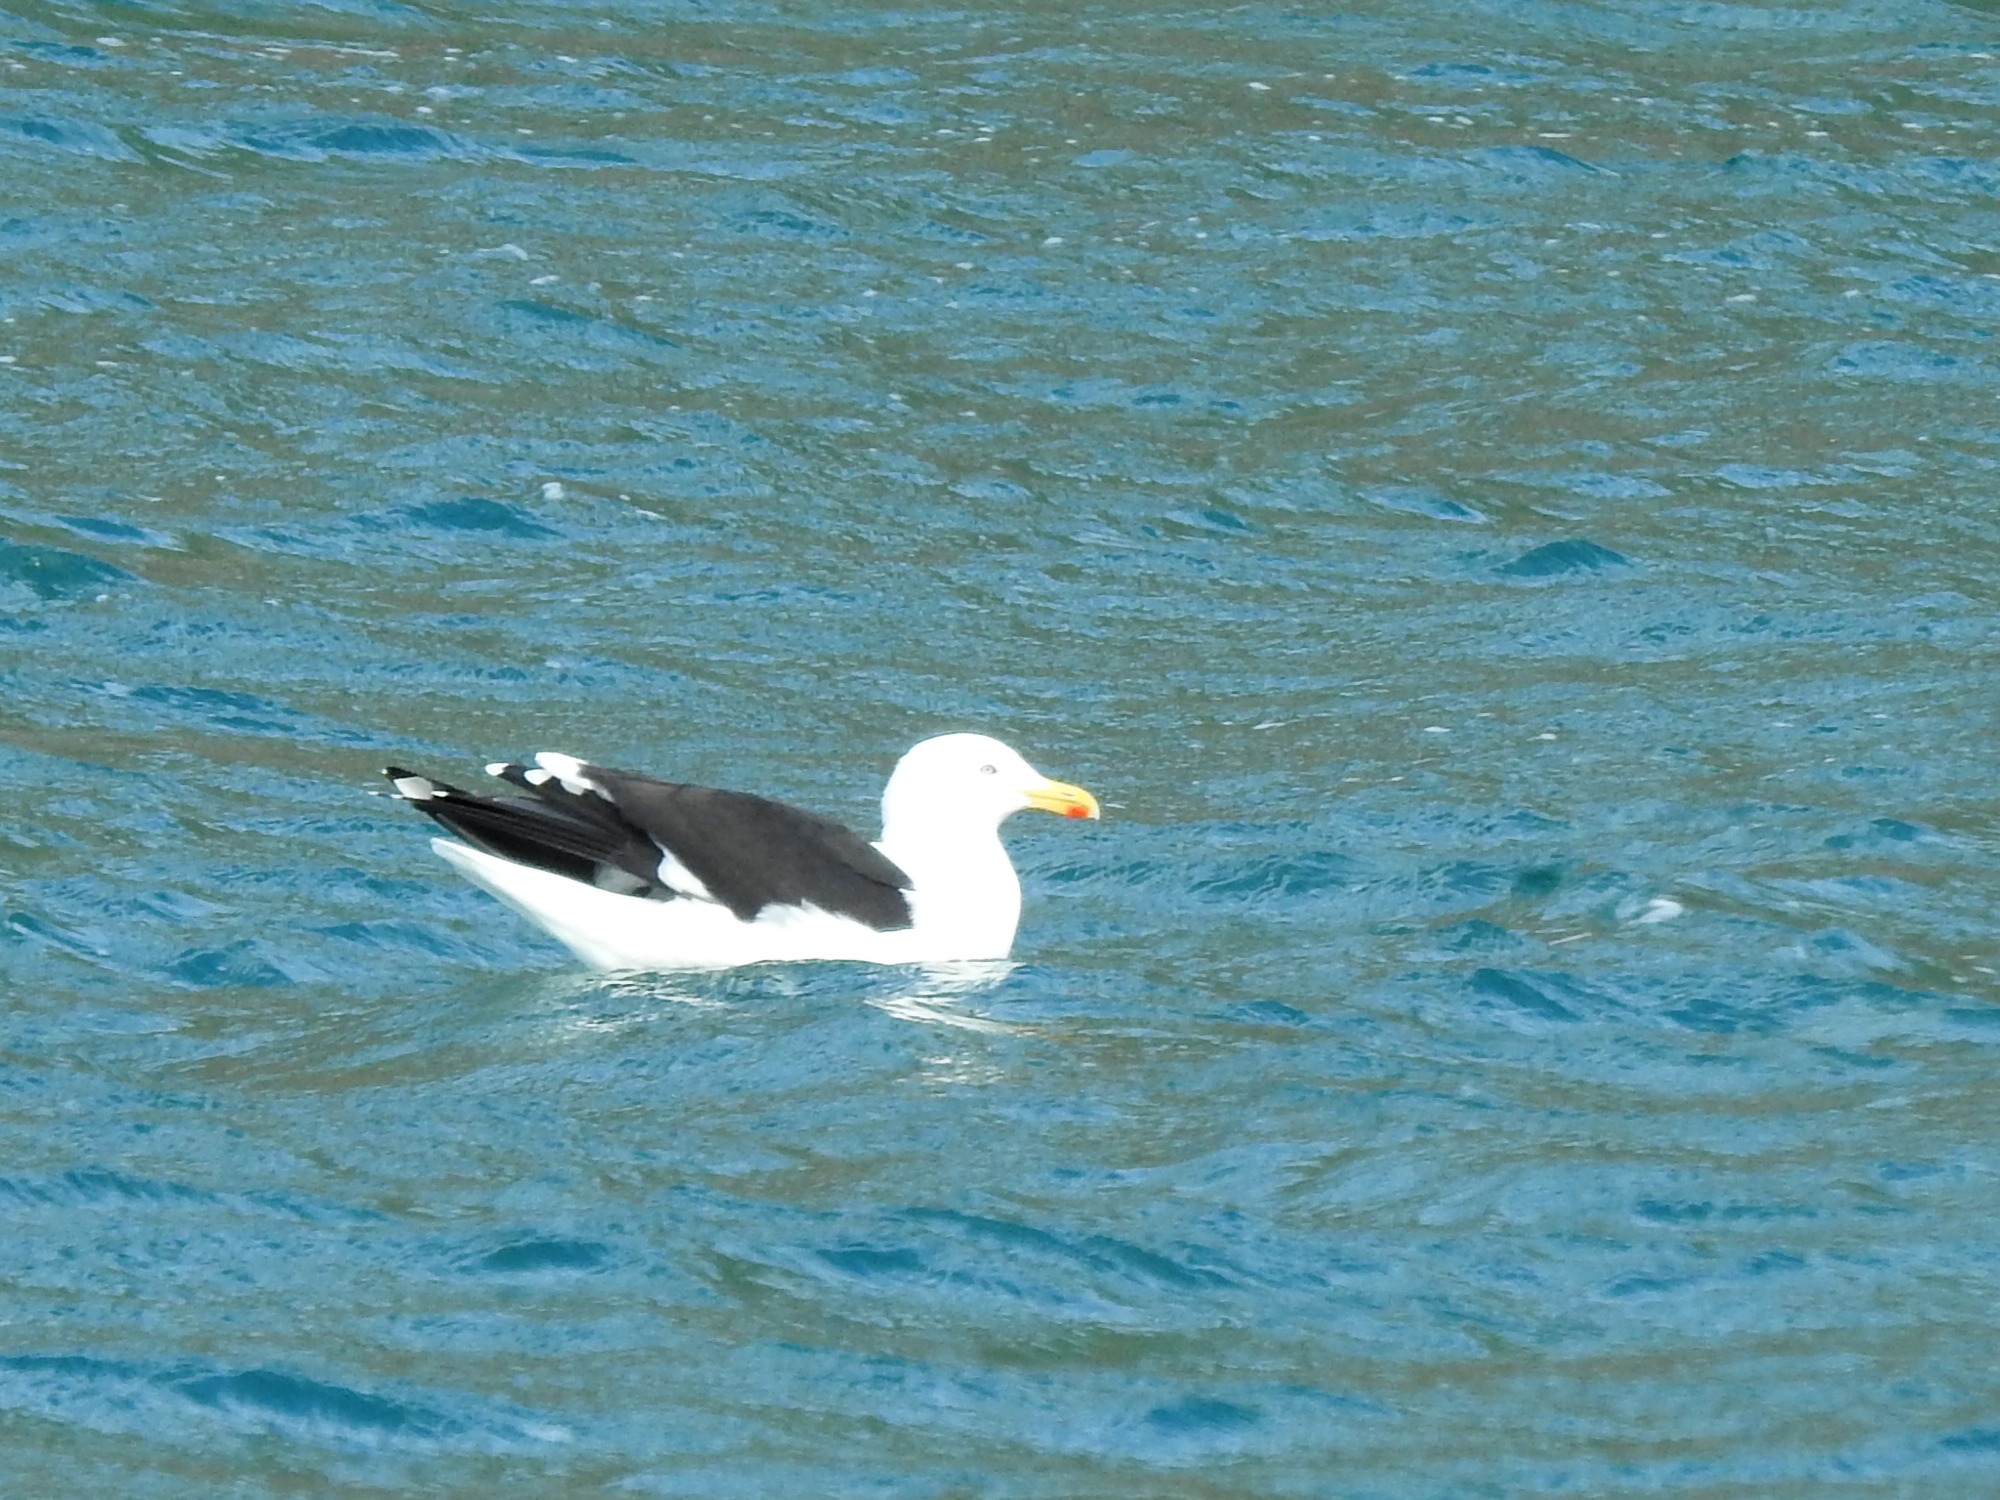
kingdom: Animalia
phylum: Chordata
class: Aves
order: Charadriiformes
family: Laridae
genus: Larus
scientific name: Larus dominicanus
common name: Kelp gull
